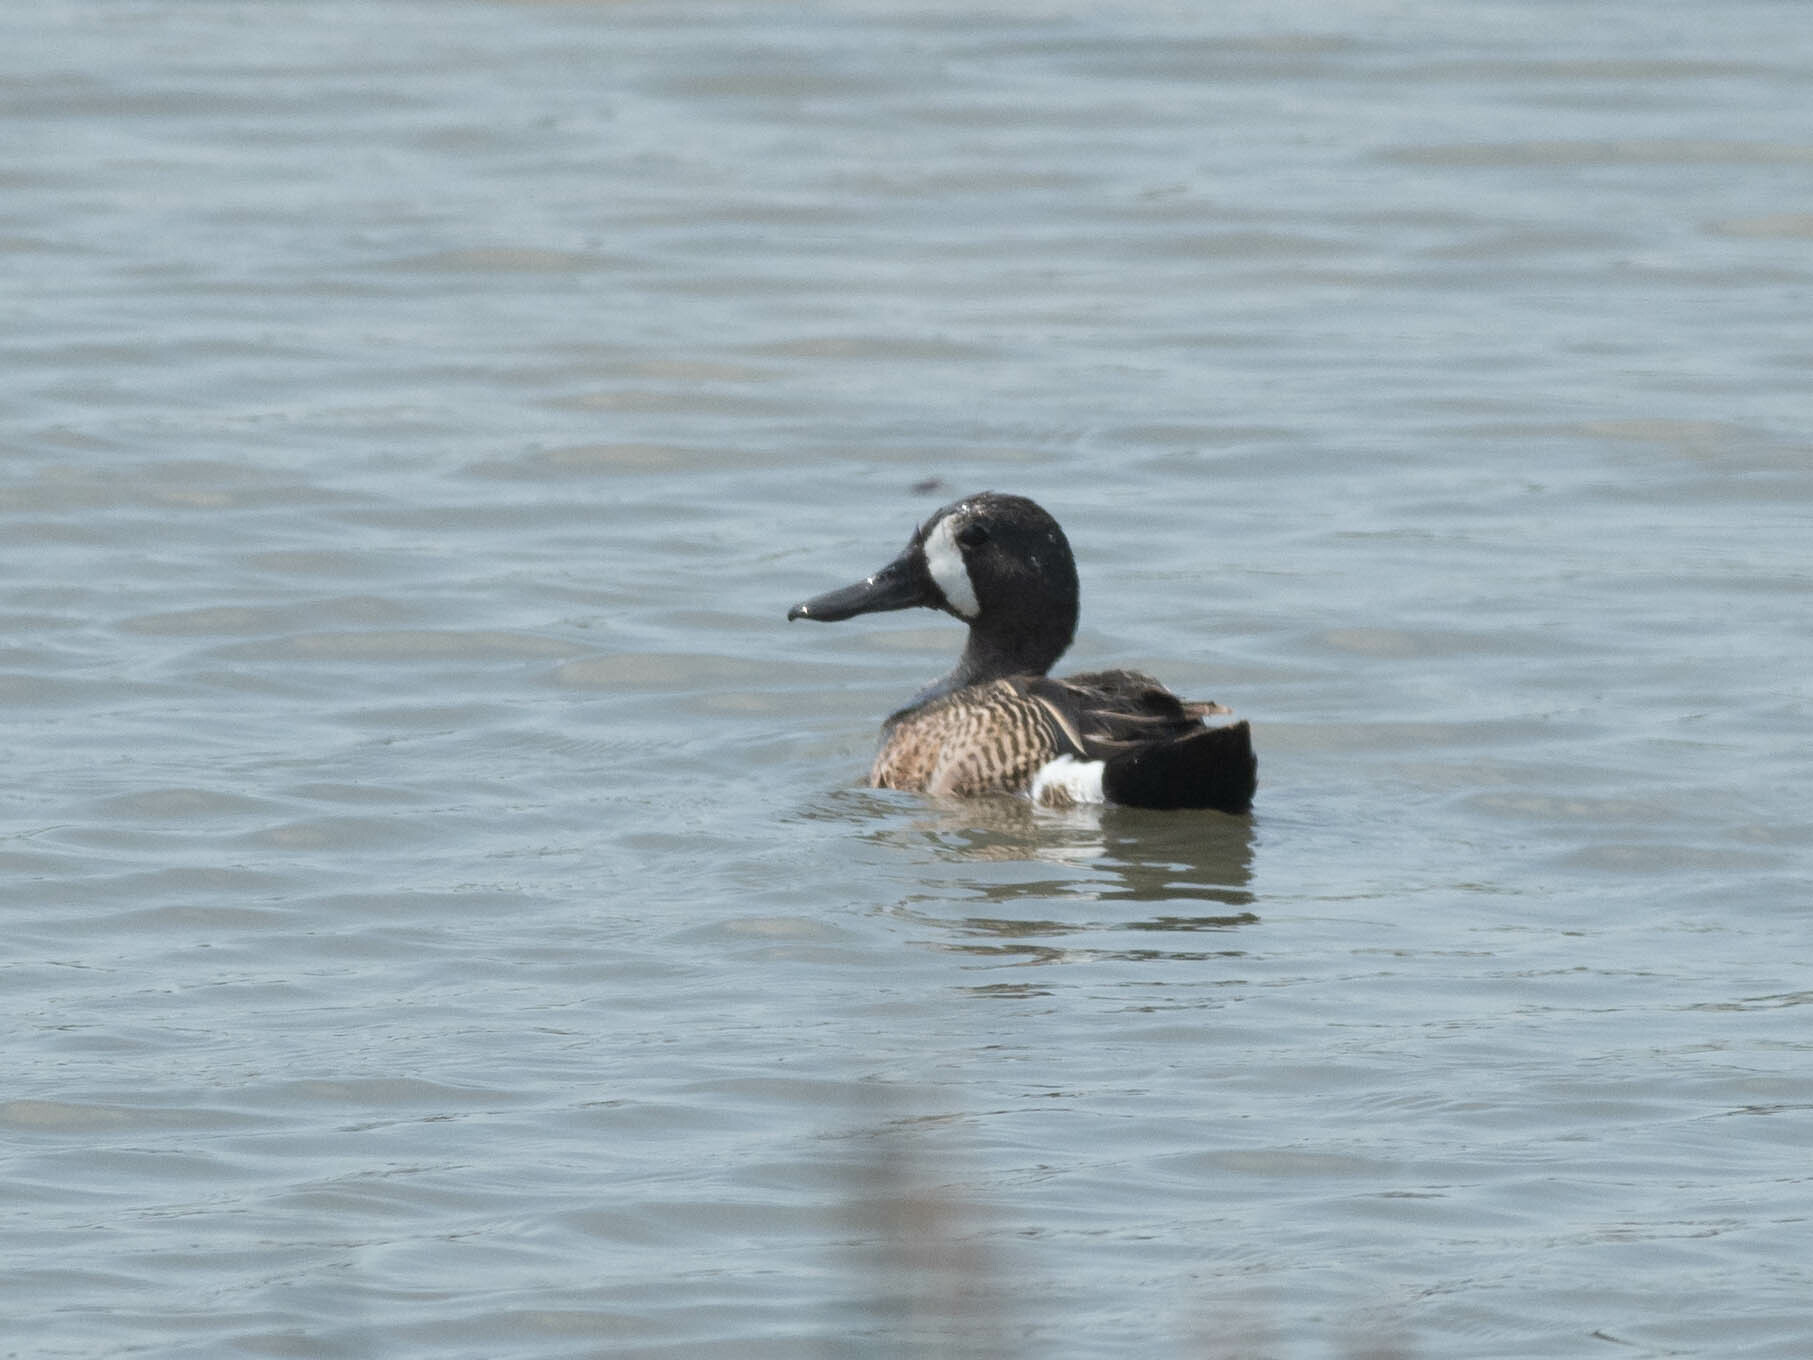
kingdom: Animalia
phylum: Chordata
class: Aves
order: Anseriformes
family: Anatidae
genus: Spatula
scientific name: Spatula discors
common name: Blue-winged teal
